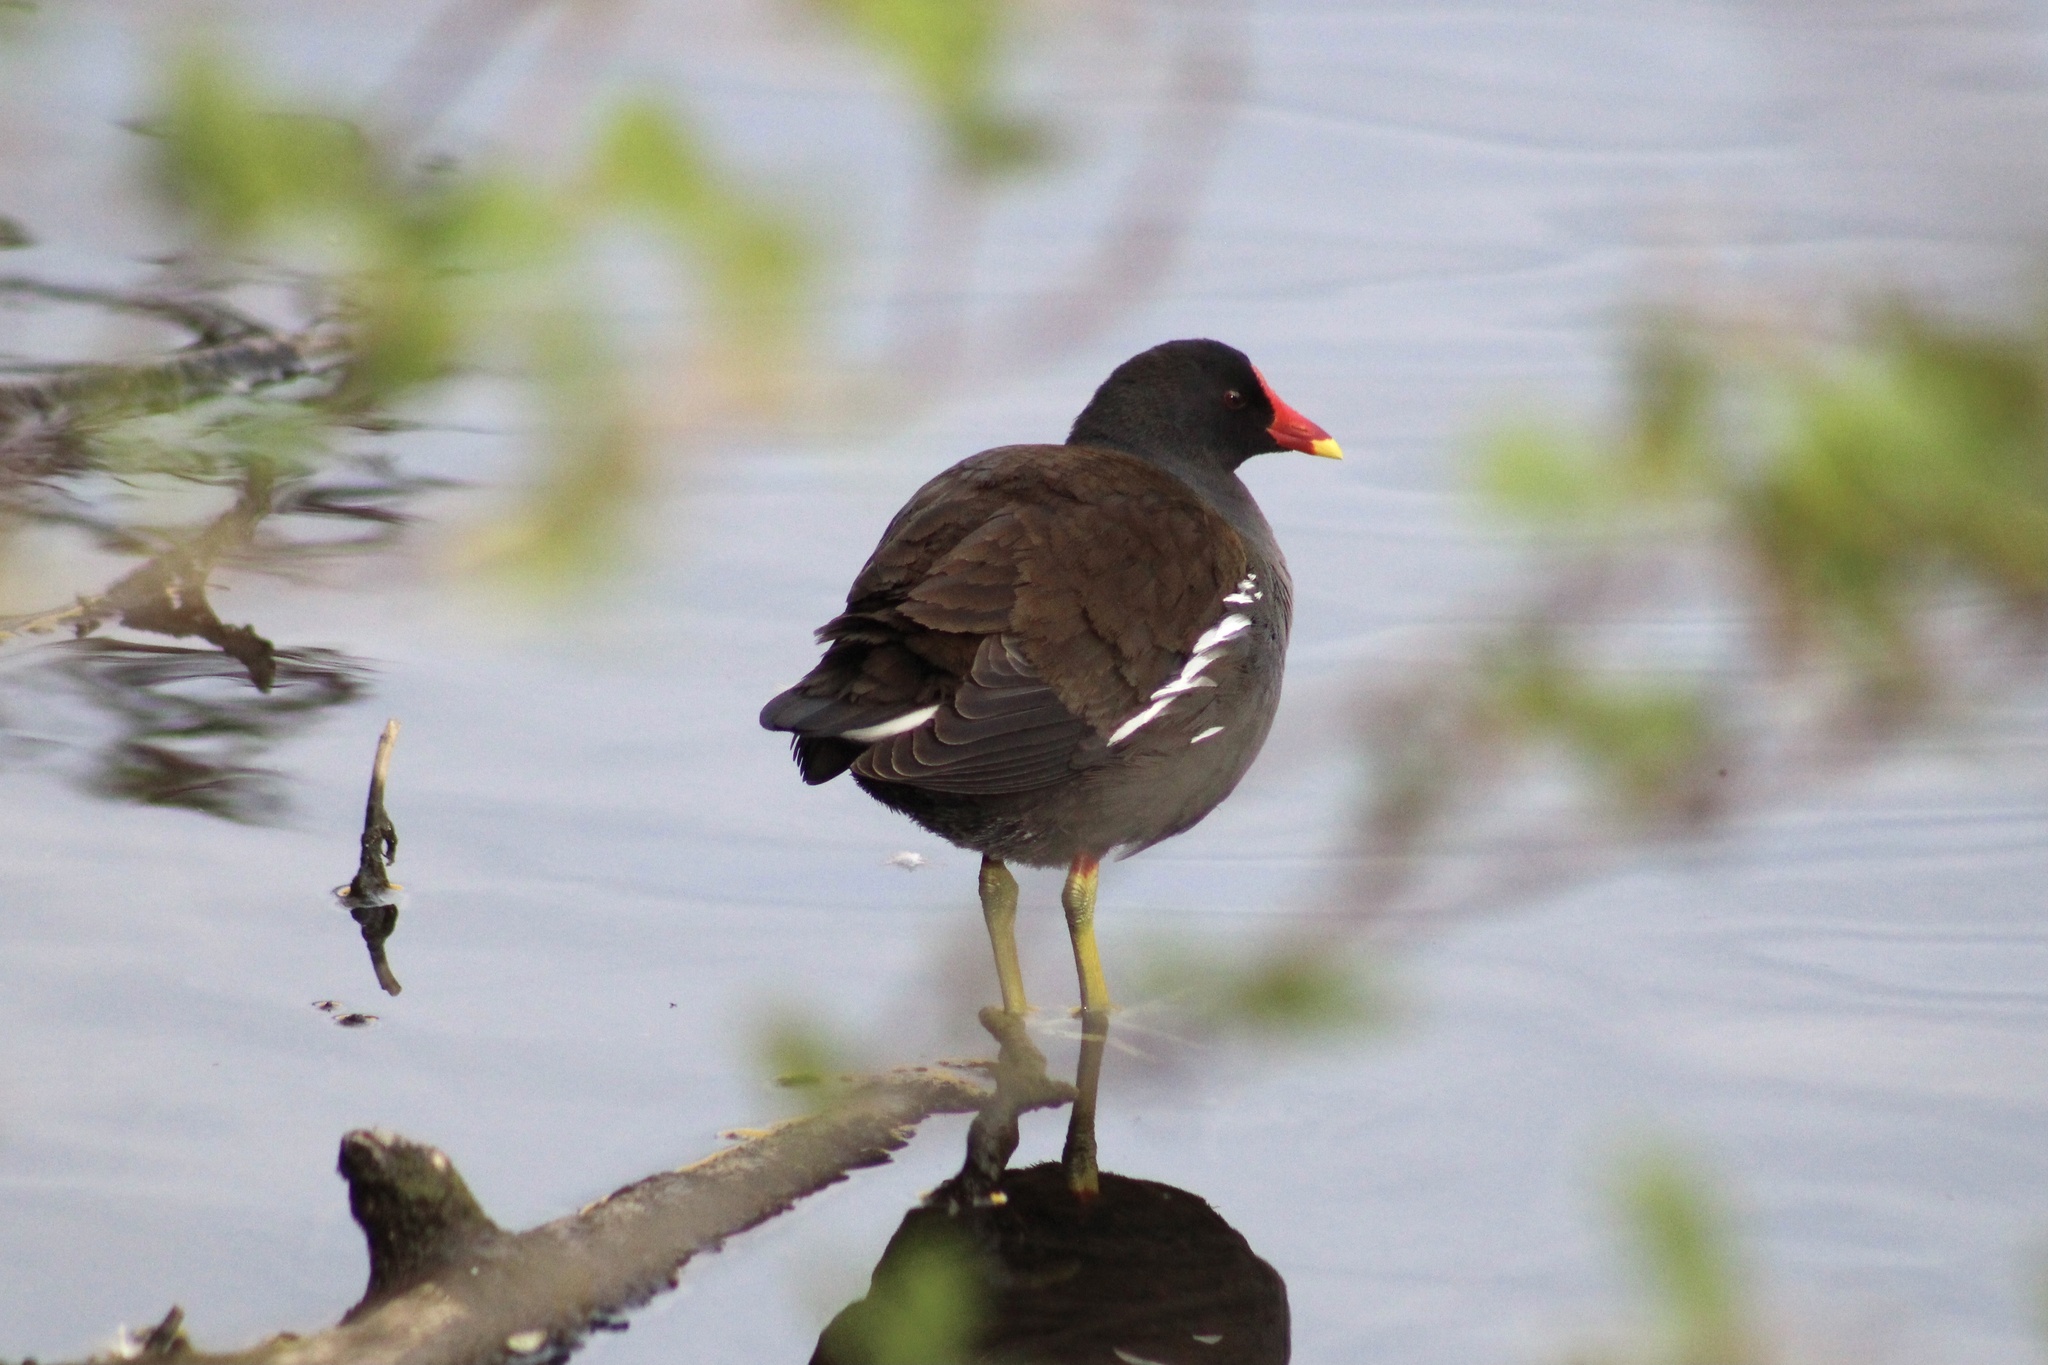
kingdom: Animalia
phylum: Chordata
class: Aves
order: Gruiformes
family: Rallidae
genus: Gallinula
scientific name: Gallinula chloropus
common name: Common moorhen
